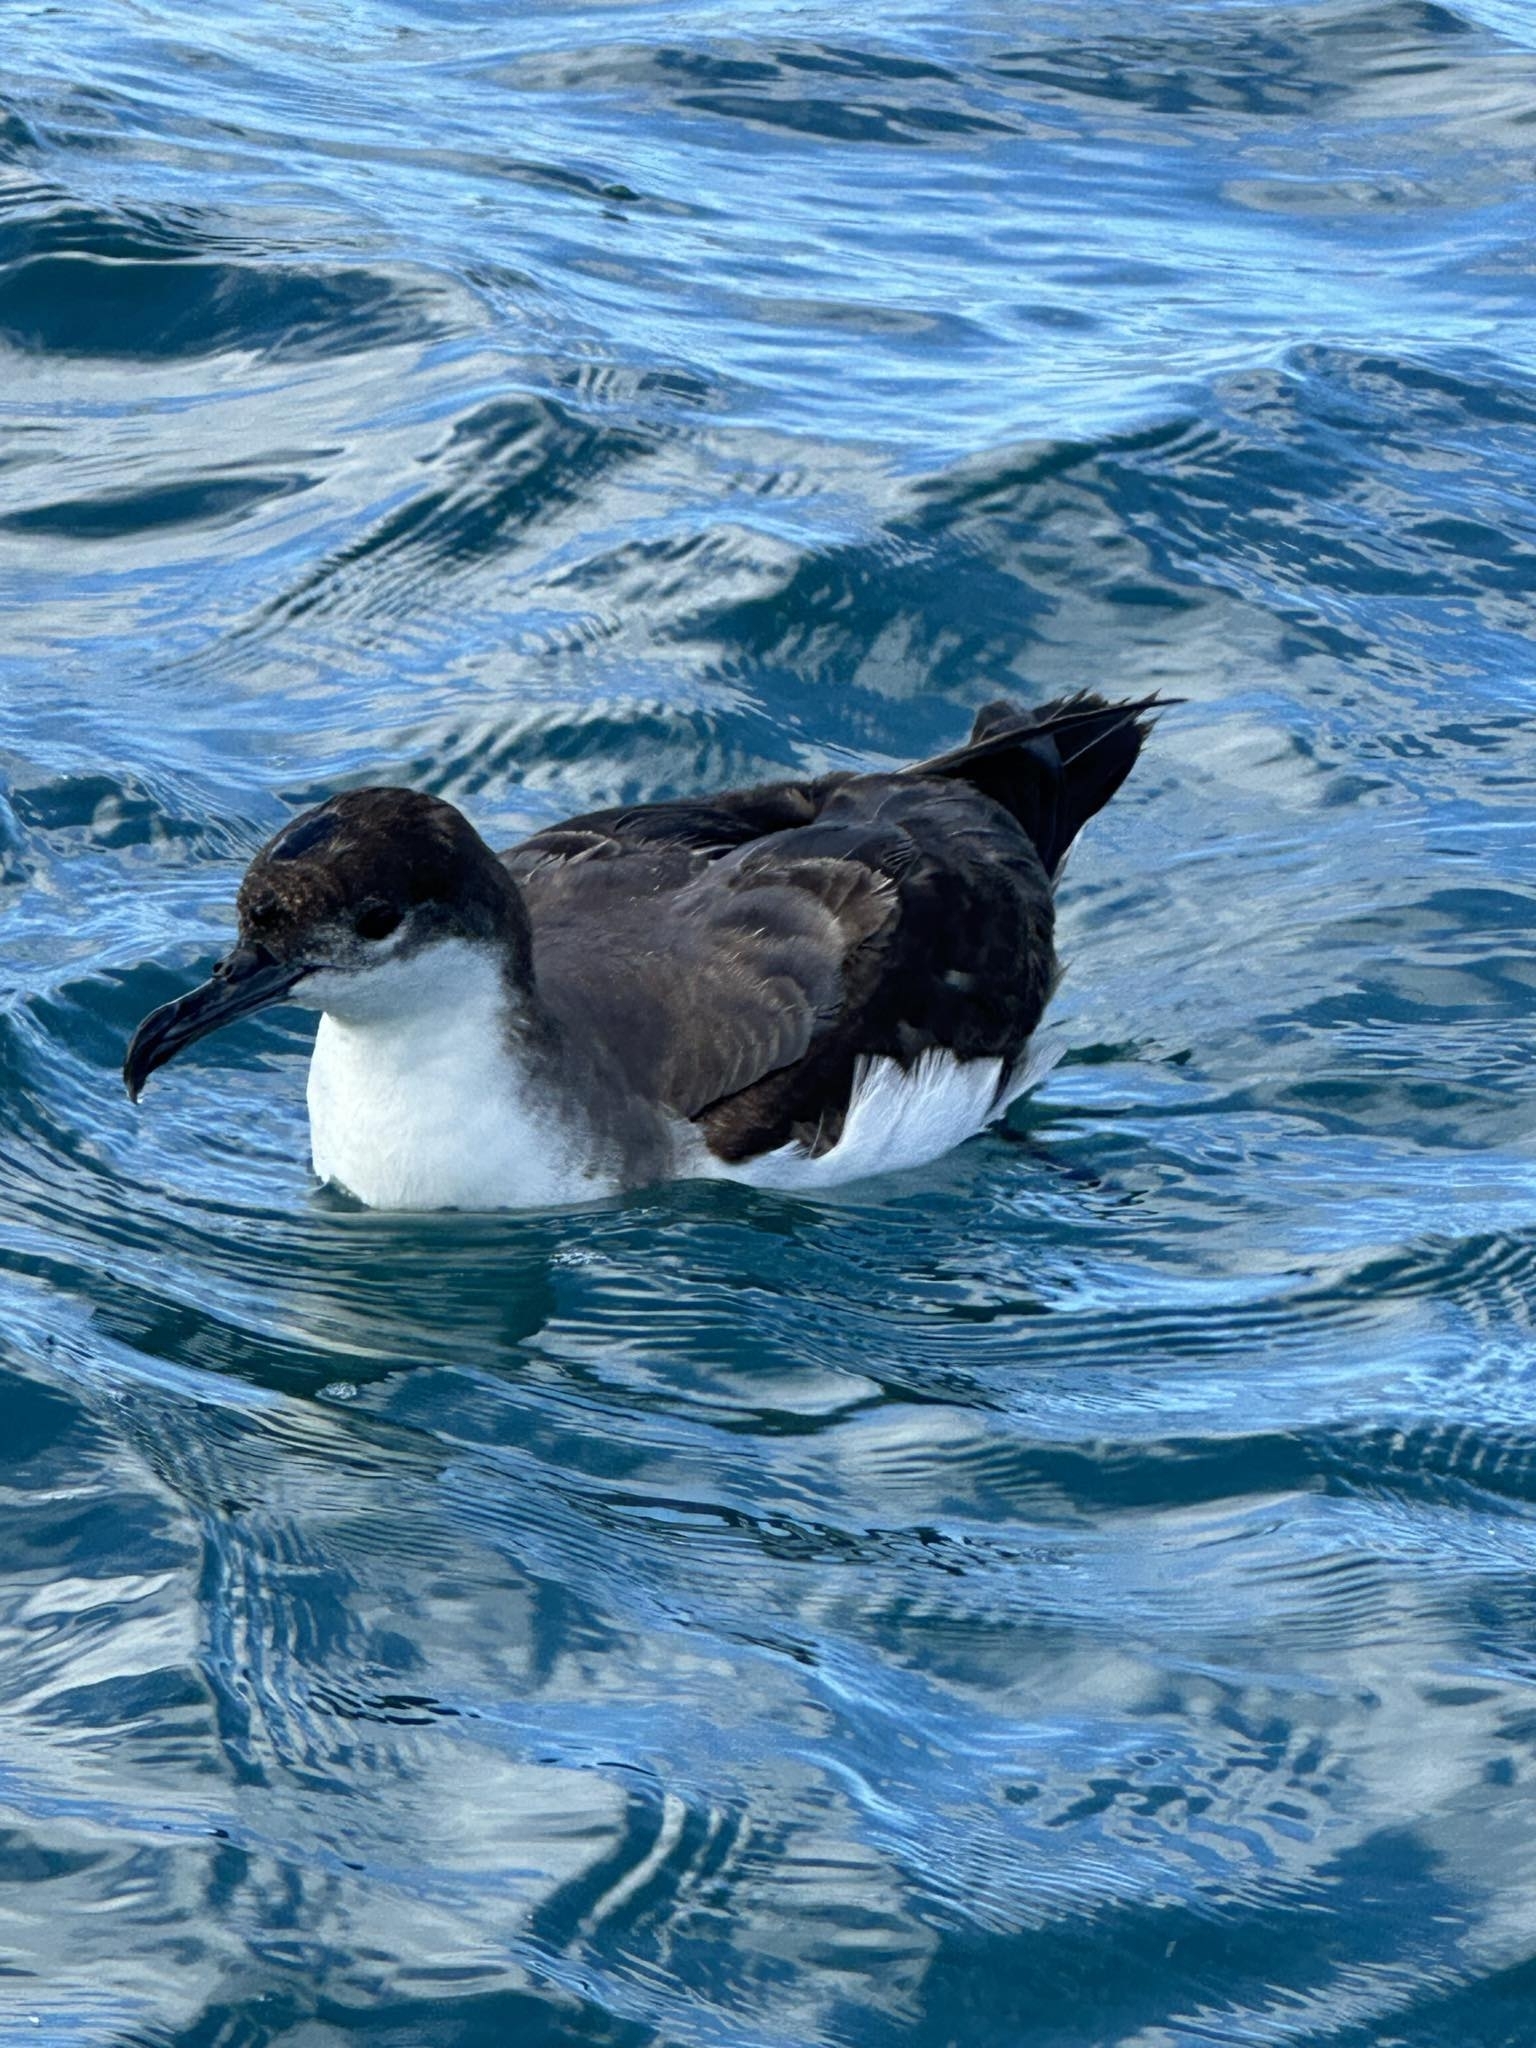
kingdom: Animalia
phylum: Chordata
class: Aves
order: Procellariiformes
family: Procellariidae
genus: Puffinus
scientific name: Puffinus bulleri
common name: Buller's shearwater
